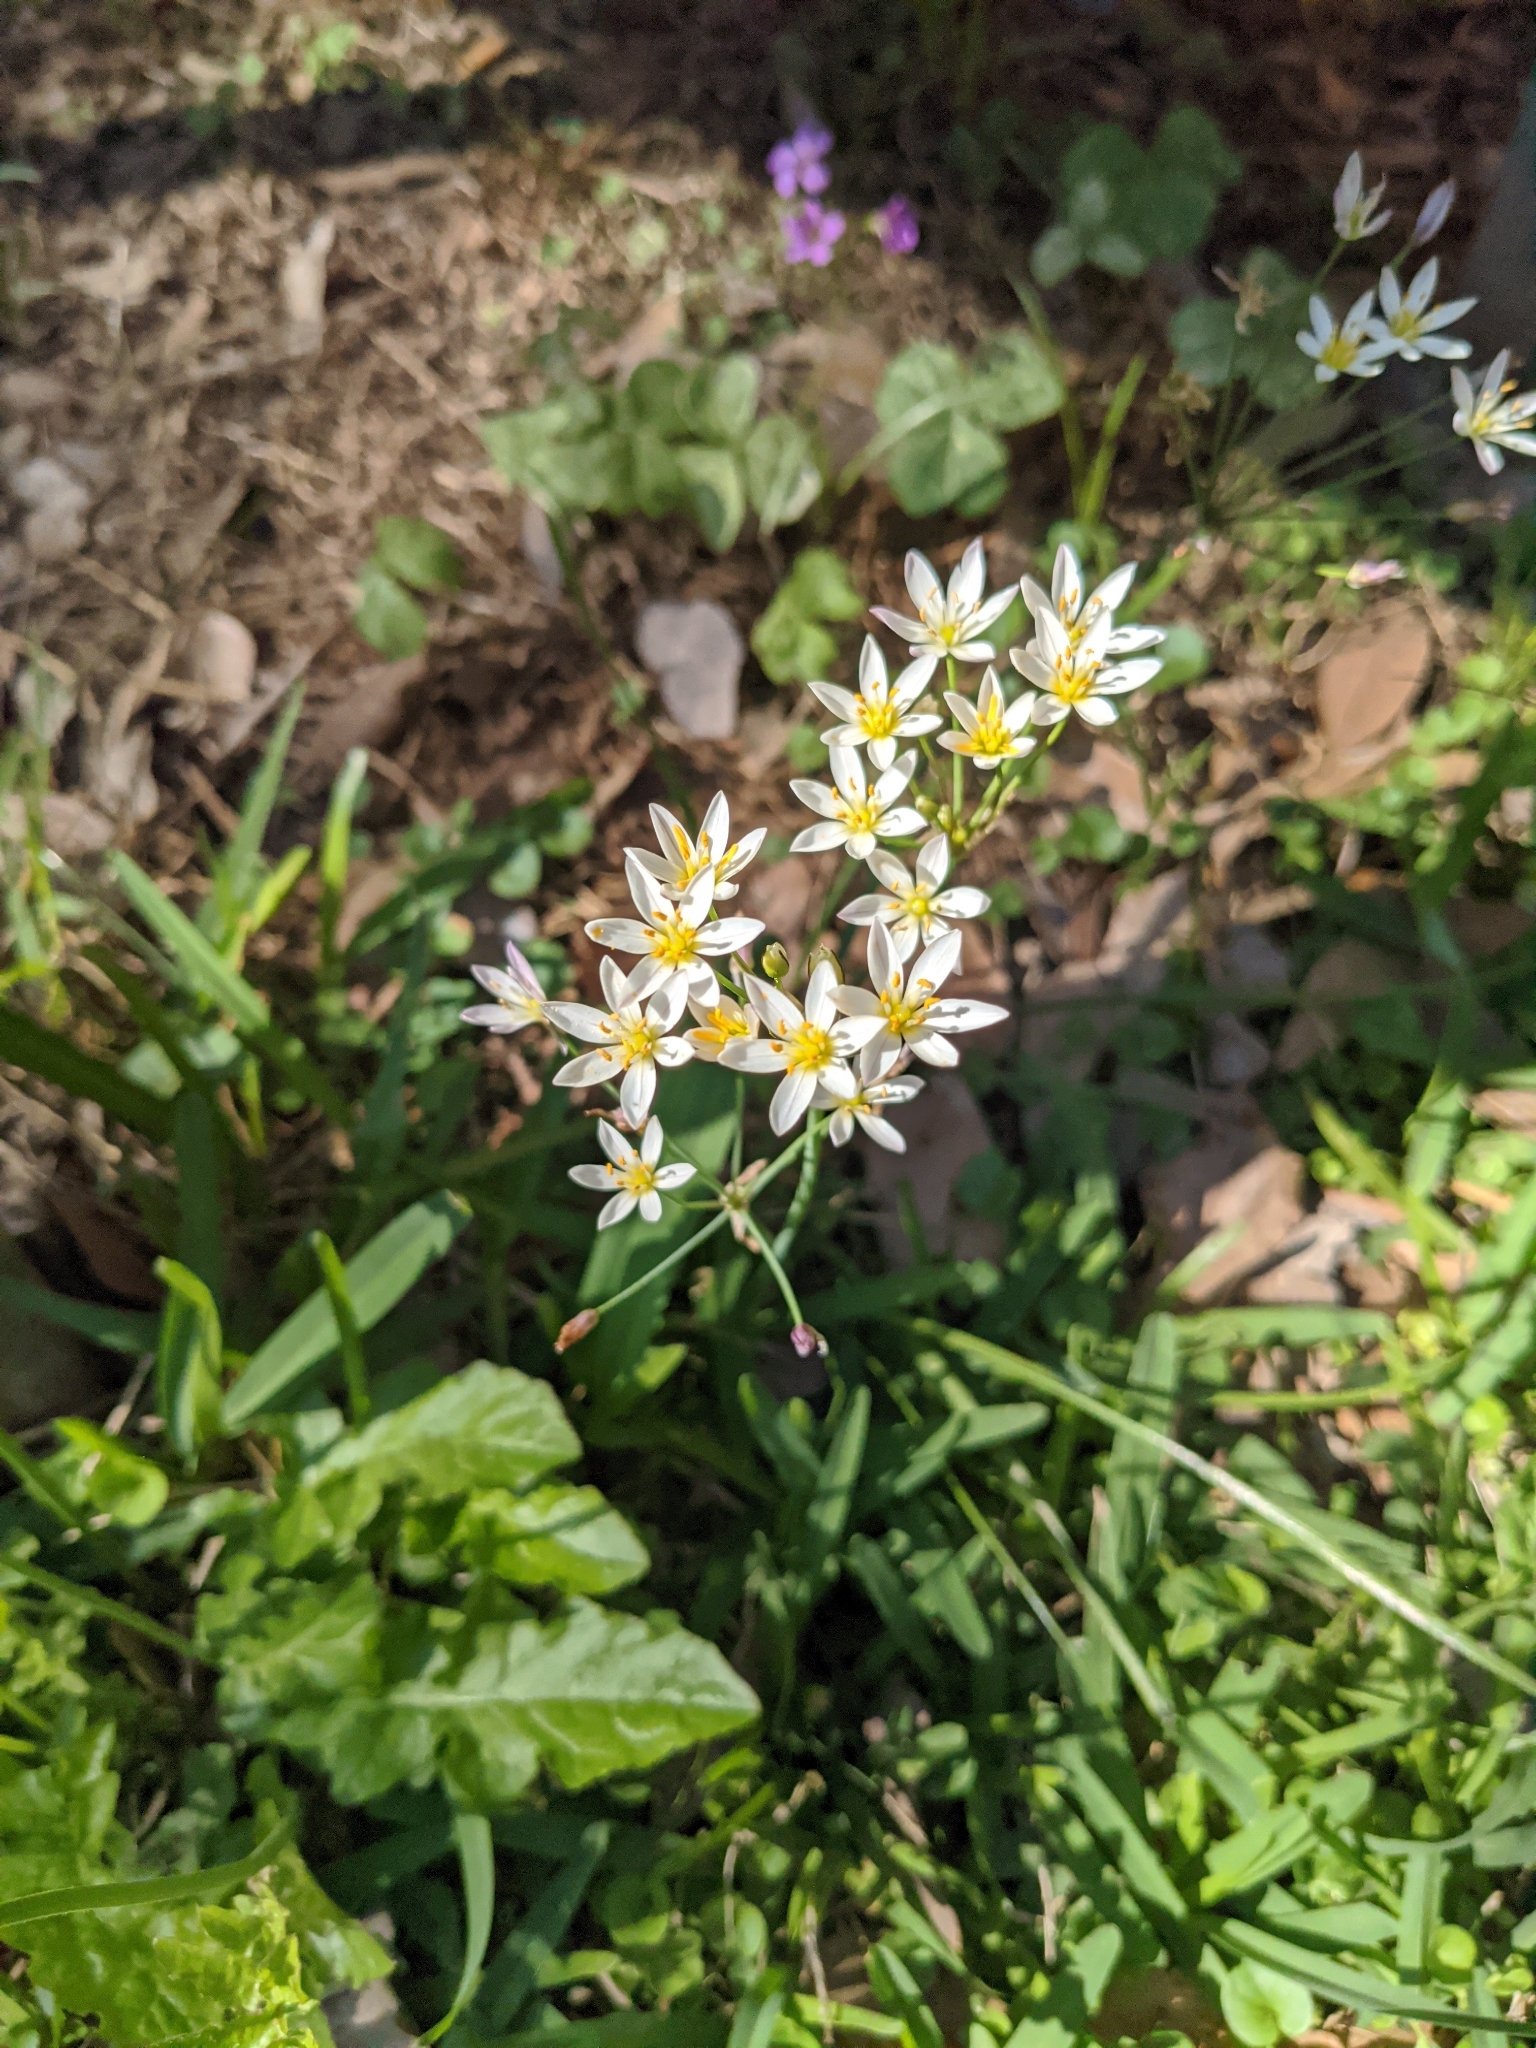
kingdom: Plantae
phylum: Tracheophyta
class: Liliopsida
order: Asparagales
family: Amaryllidaceae
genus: Nothoscordum
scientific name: Nothoscordum bivalve
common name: Crow-poison
